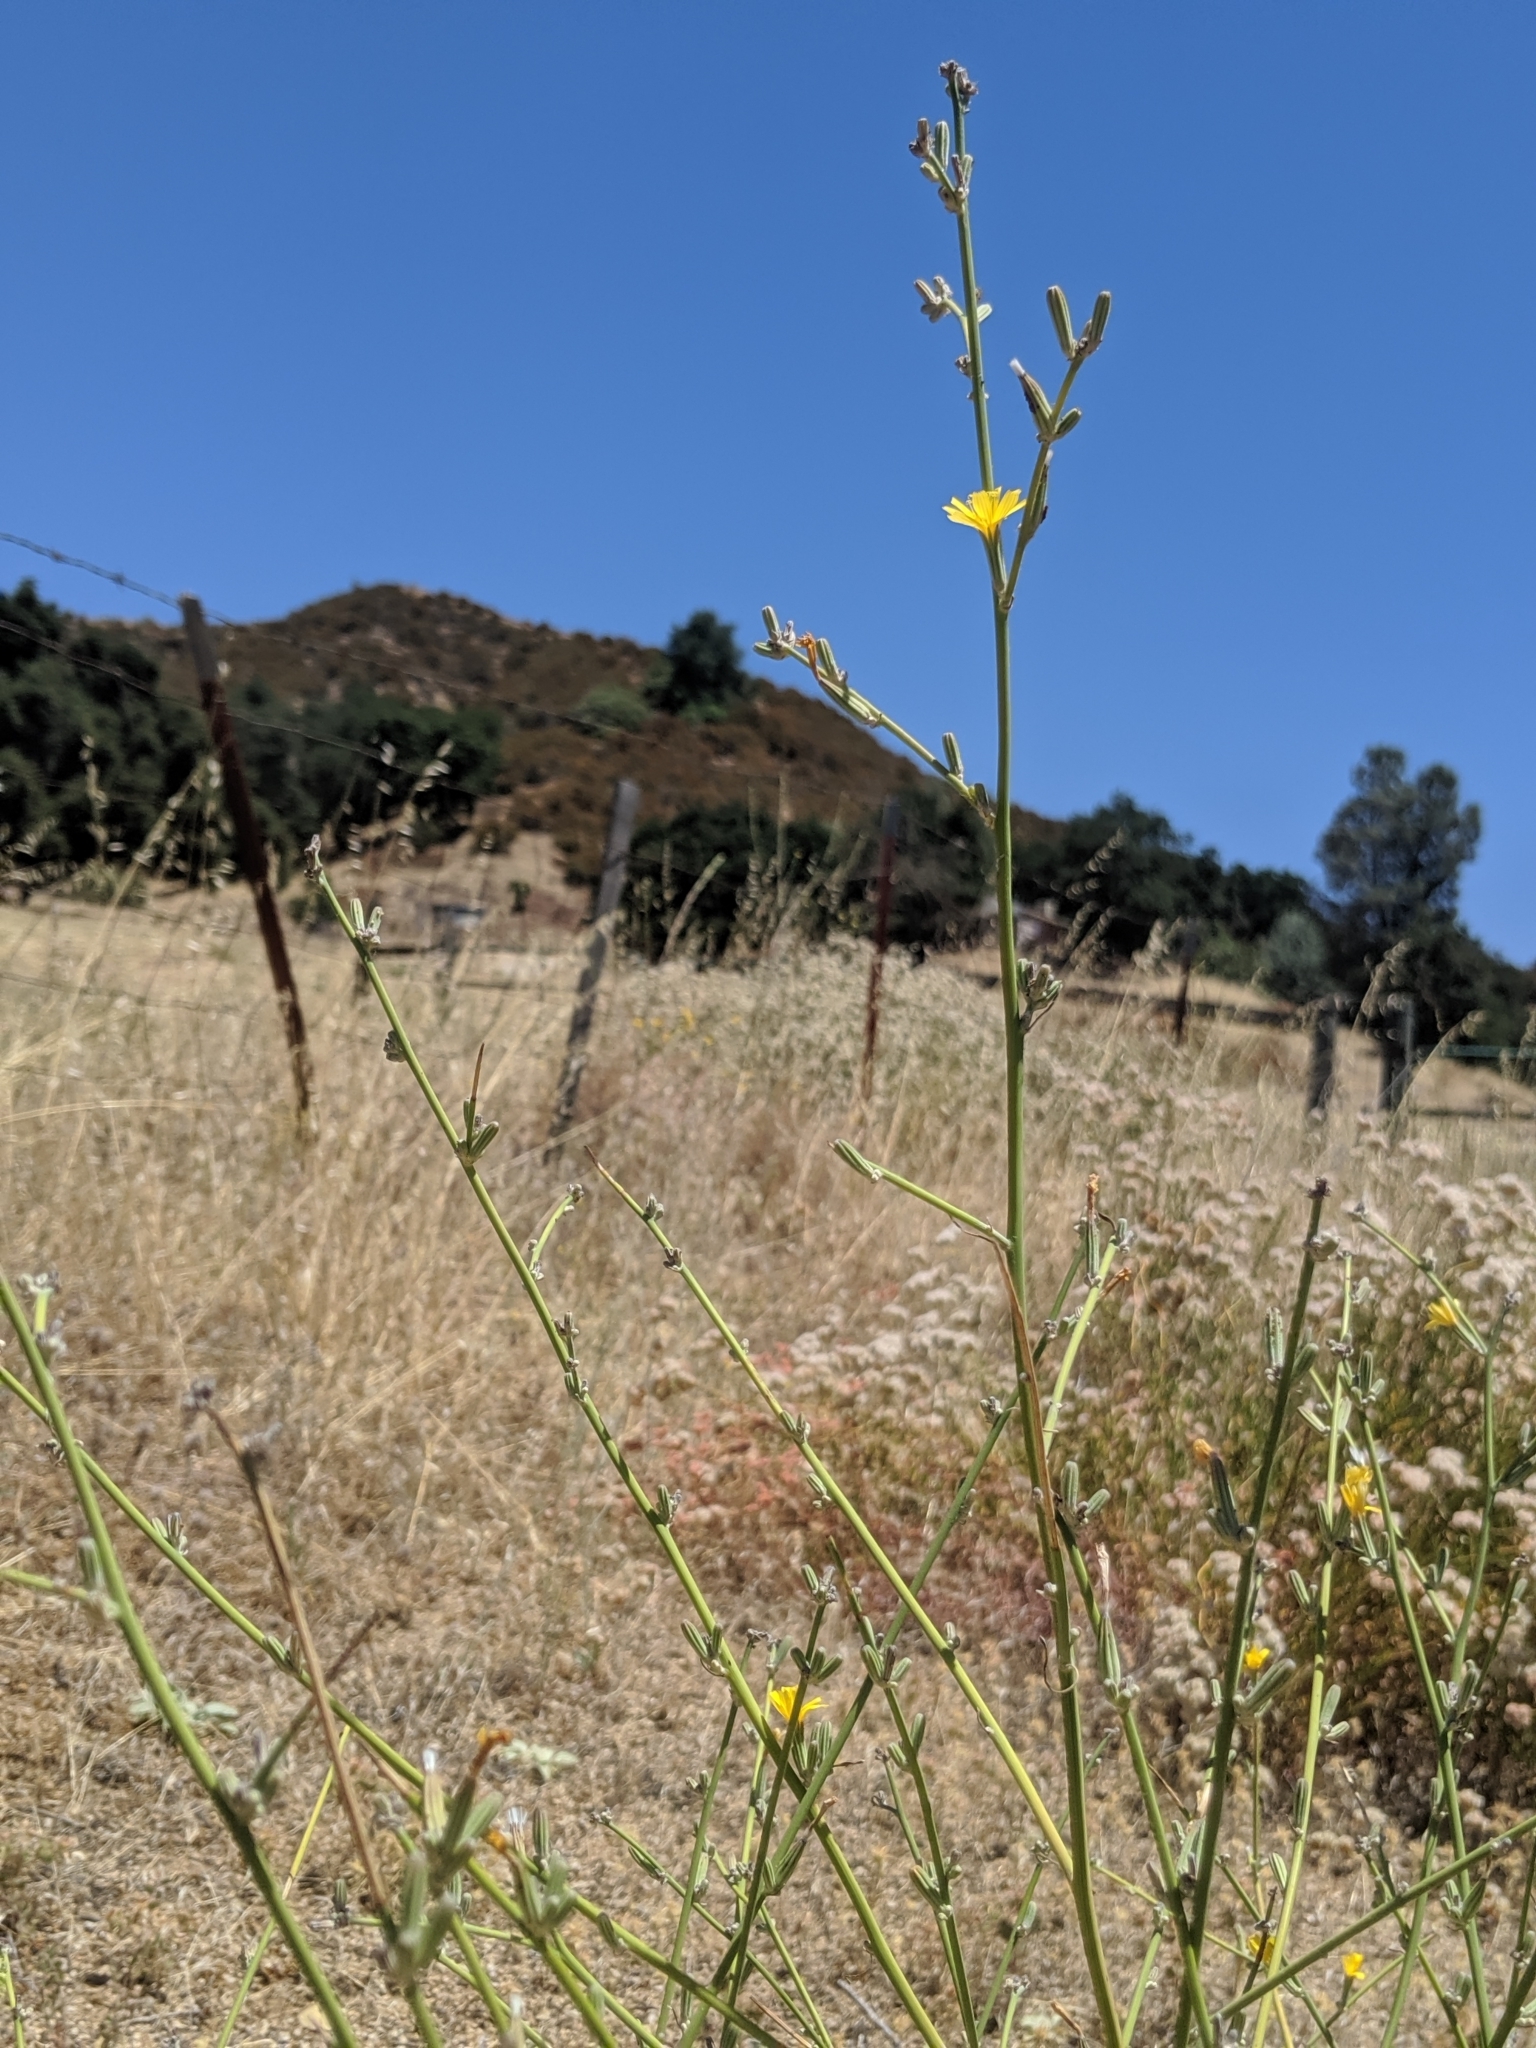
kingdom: Plantae
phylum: Tracheophyta
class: Magnoliopsida
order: Asterales
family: Asteraceae
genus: Chondrilla
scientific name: Chondrilla juncea
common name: Skeleton weed
